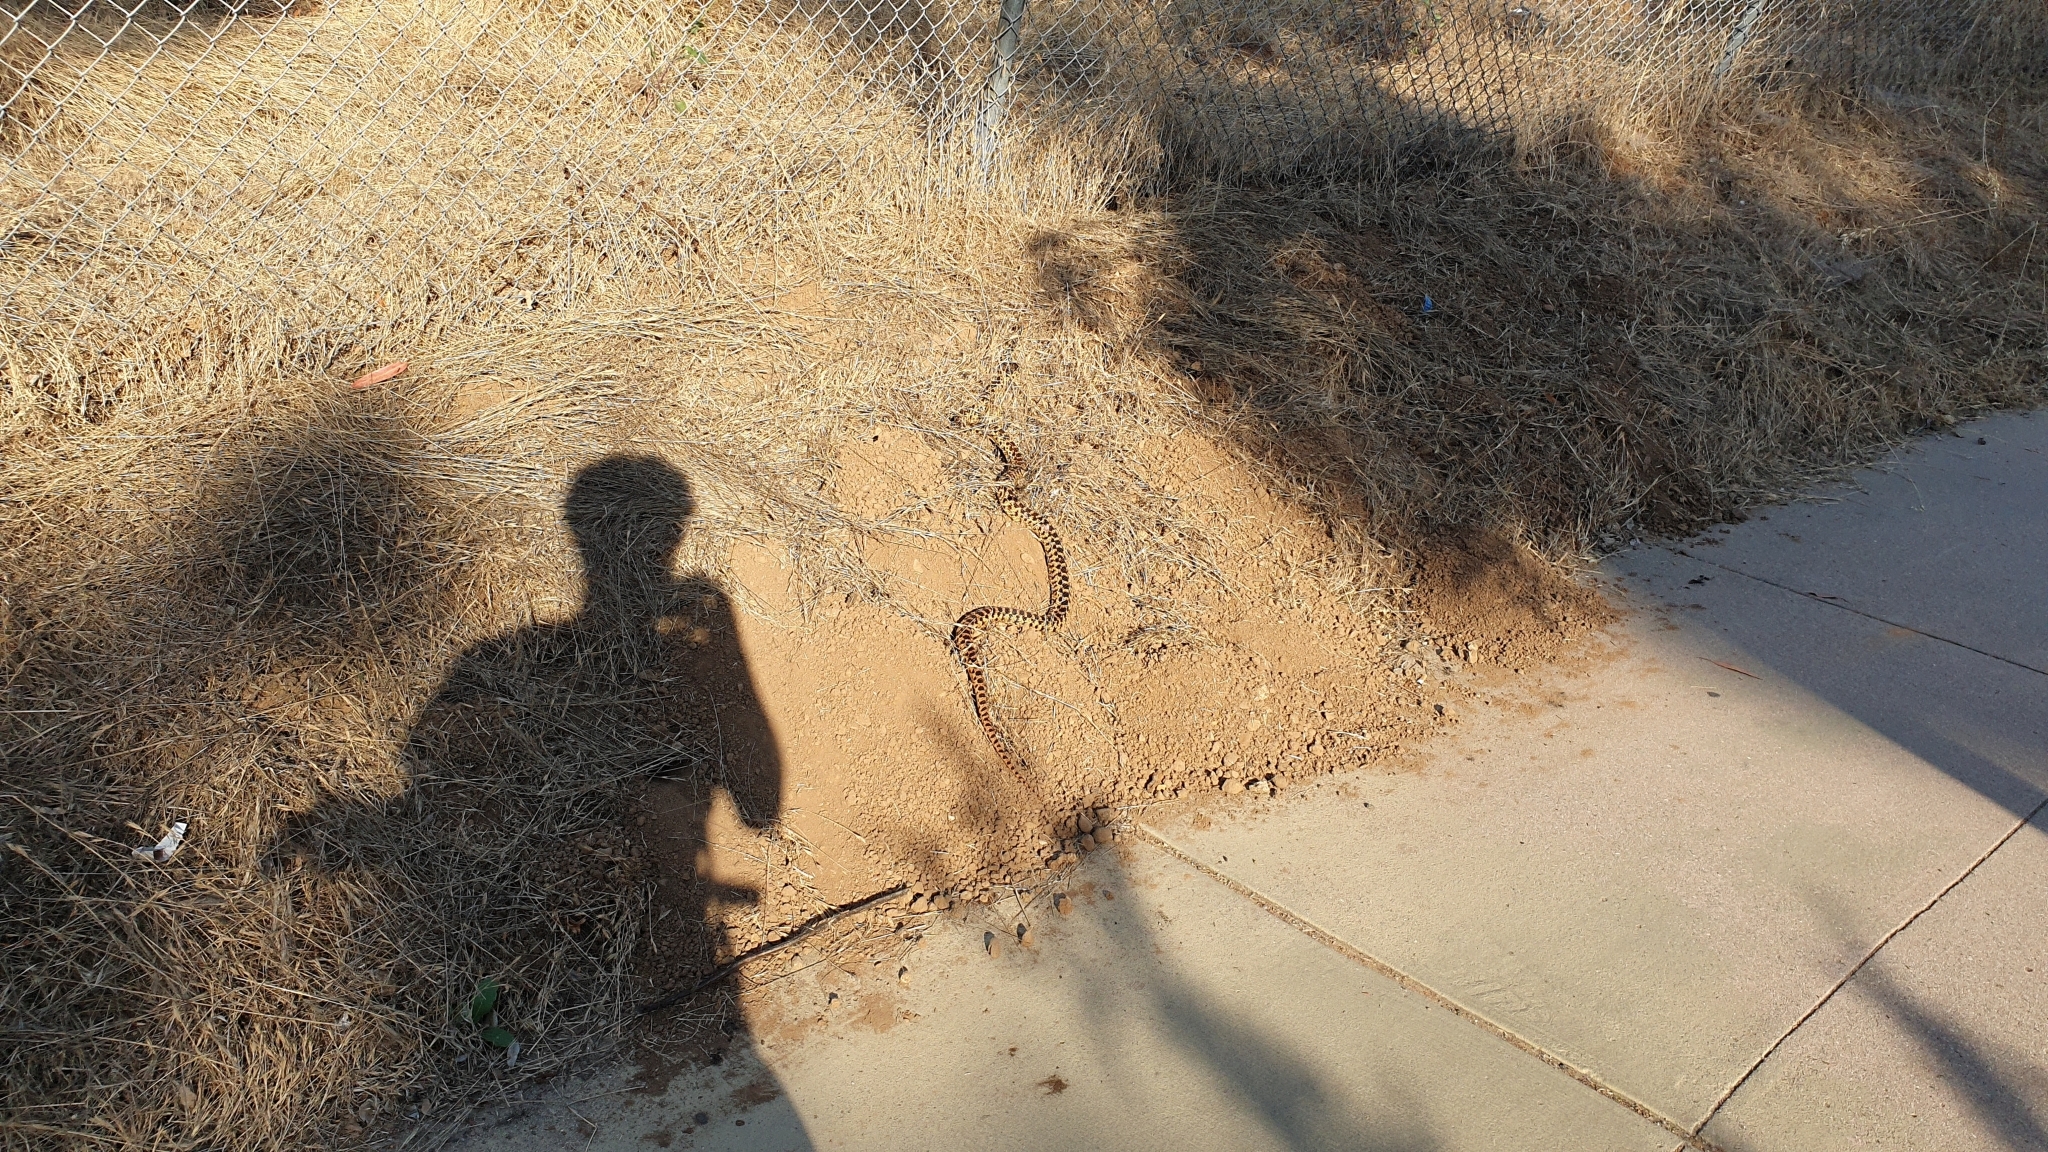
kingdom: Animalia
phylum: Chordata
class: Squamata
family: Colubridae
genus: Pituophis
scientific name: Pituophis catenifer
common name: Gopher snake
